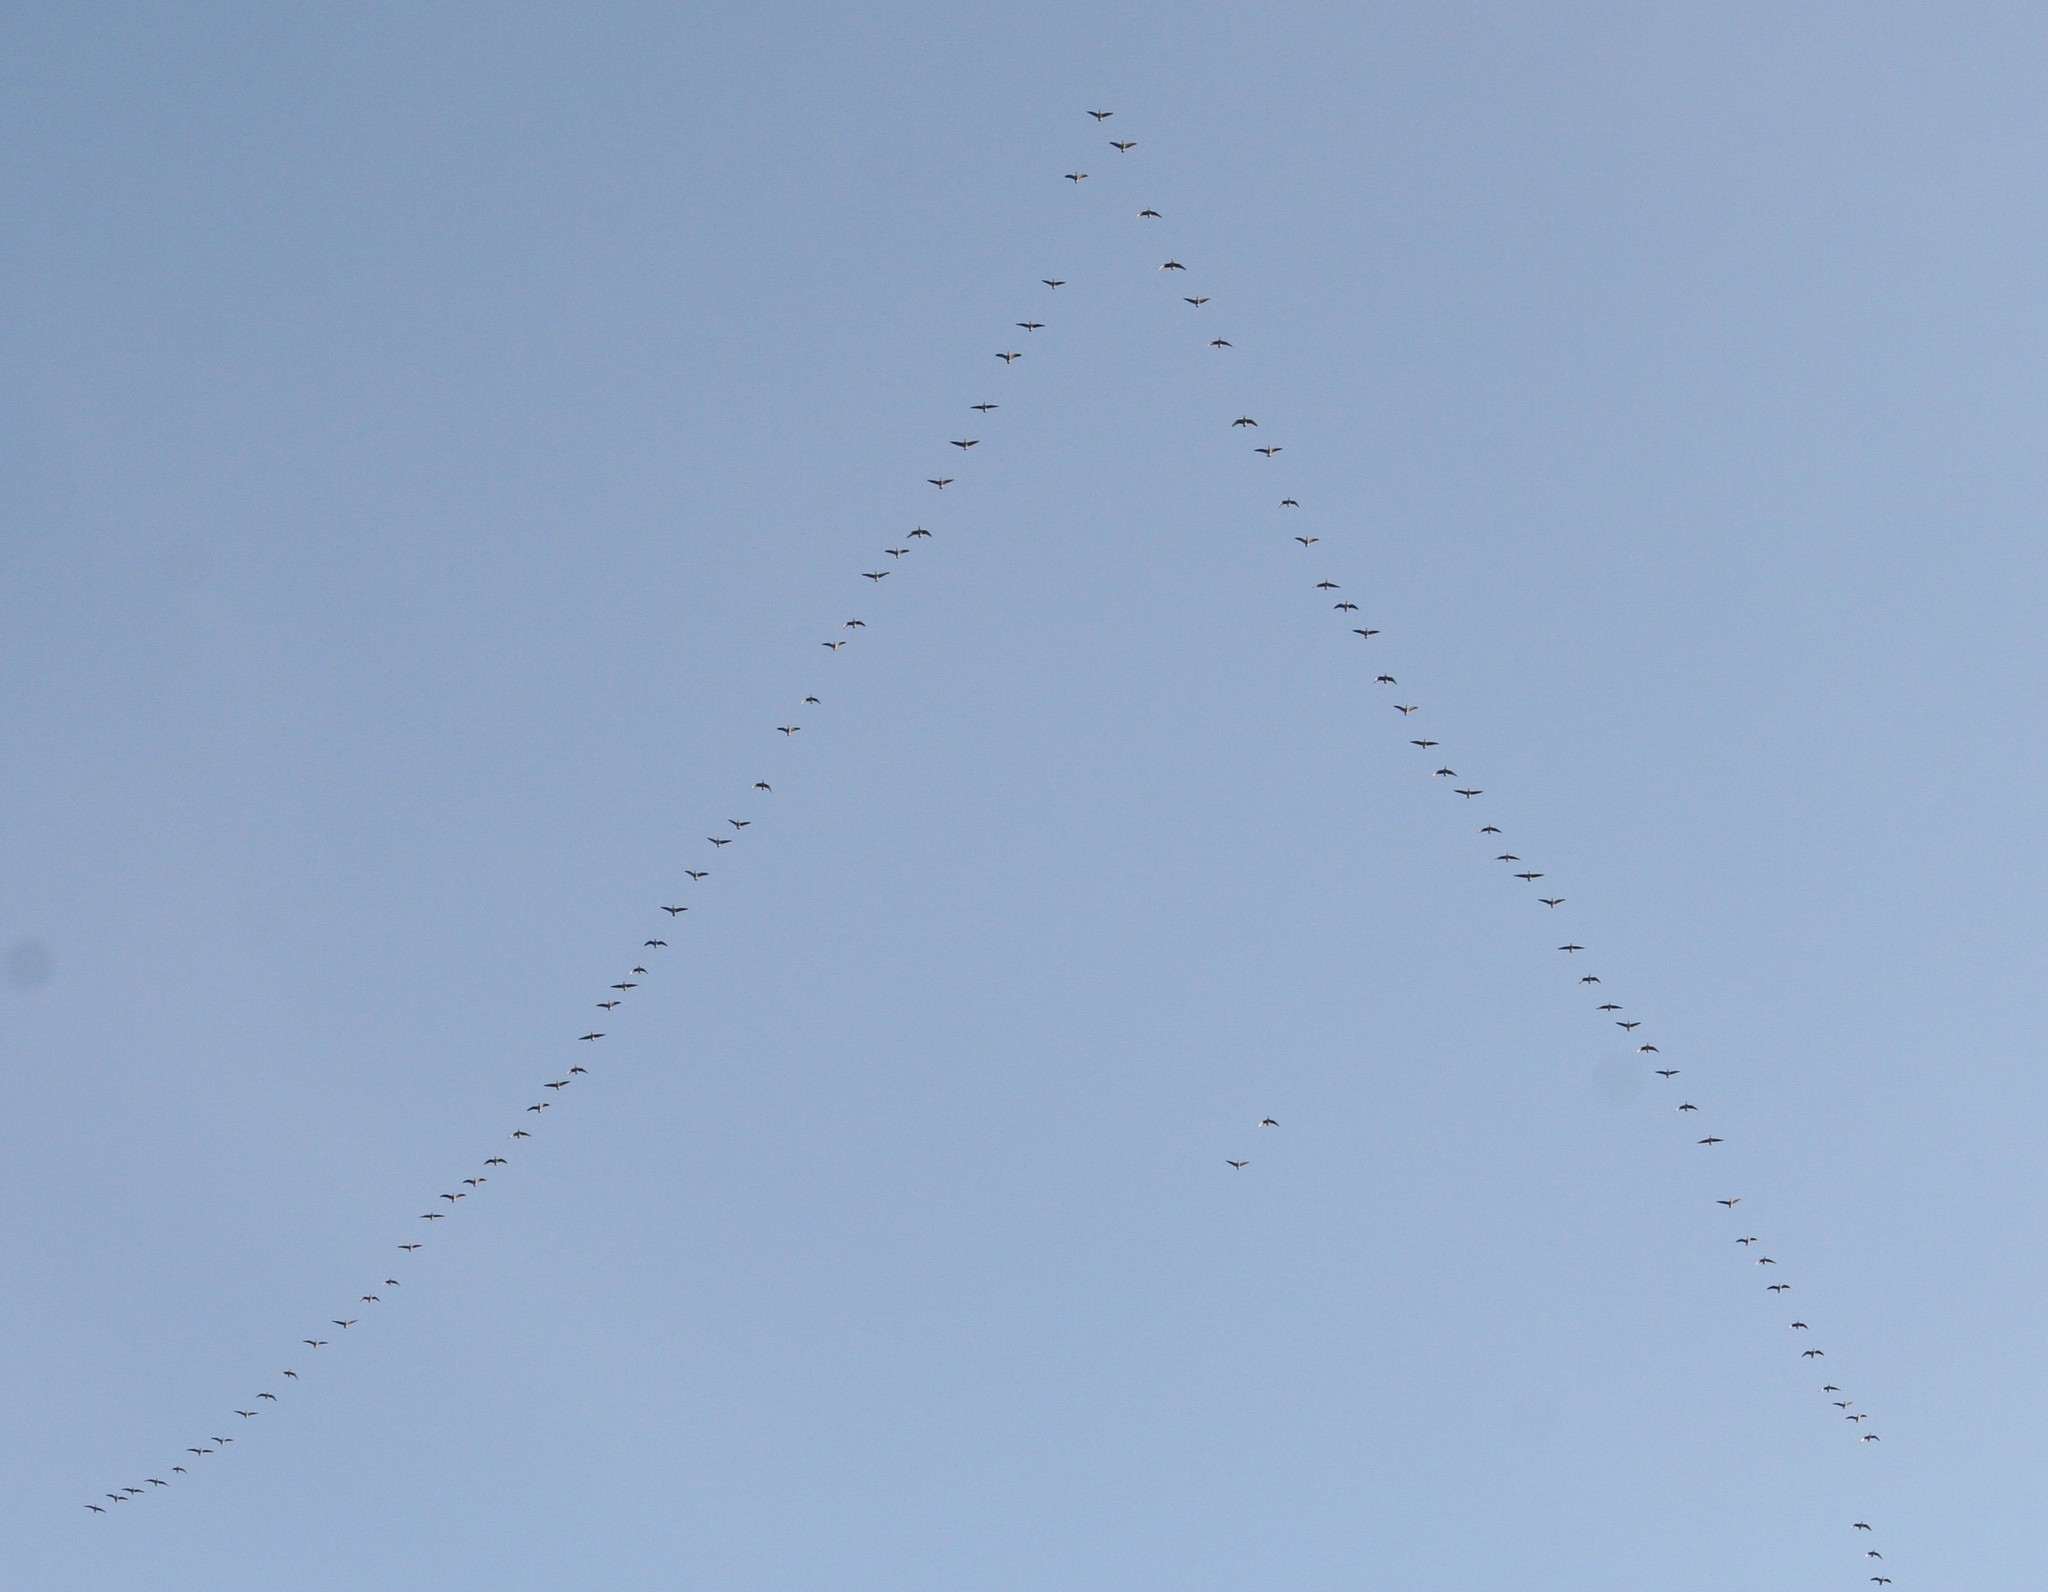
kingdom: Animalia
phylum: Chordata
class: Aves
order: Anseriformes
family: Anatidae
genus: Branta
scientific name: Branta canadensis
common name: Canada goose
